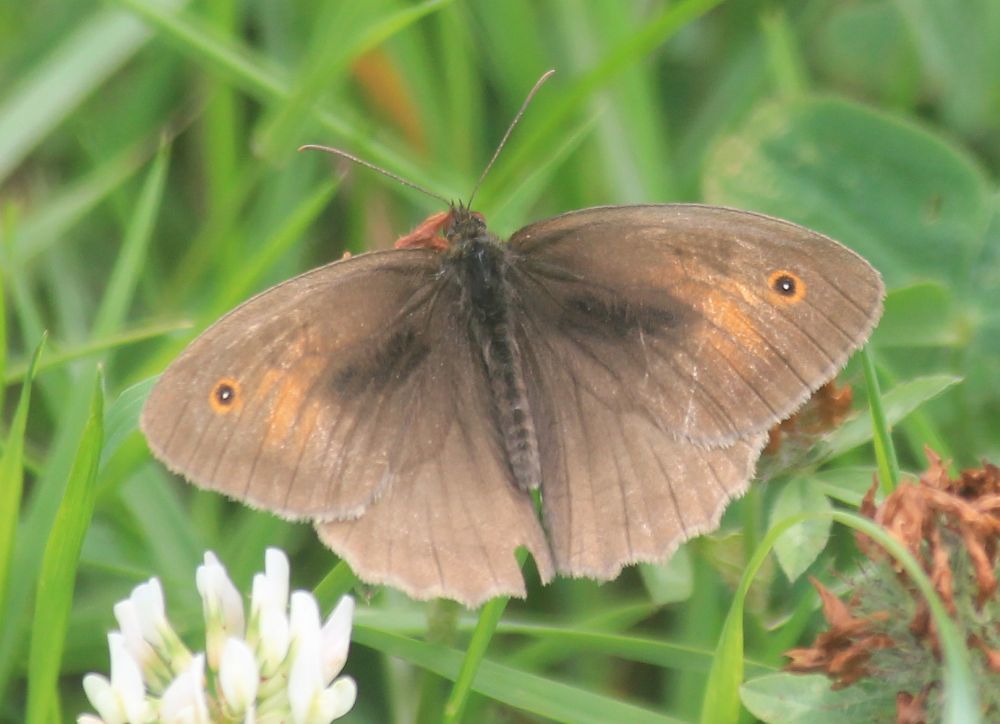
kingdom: Animalia
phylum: Arthropoda
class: Insecta
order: Lepidoptera
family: Nymphalidae
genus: Maniola
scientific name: Maniola jurtina
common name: Meadow brown
